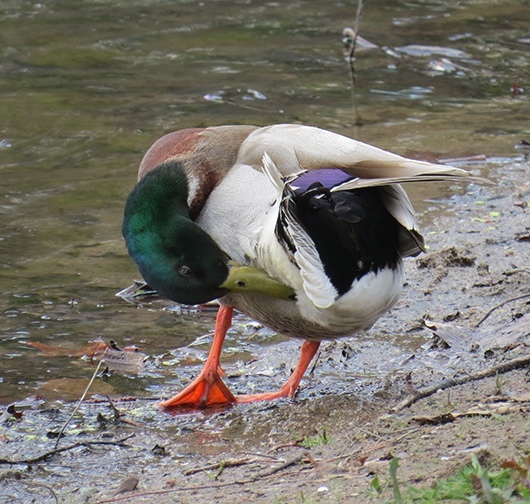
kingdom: Animalia
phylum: Chordata
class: Aves
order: Anseriformes
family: Anatidae
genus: Anas
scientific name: Anas platyrhynchos
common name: Mallard
